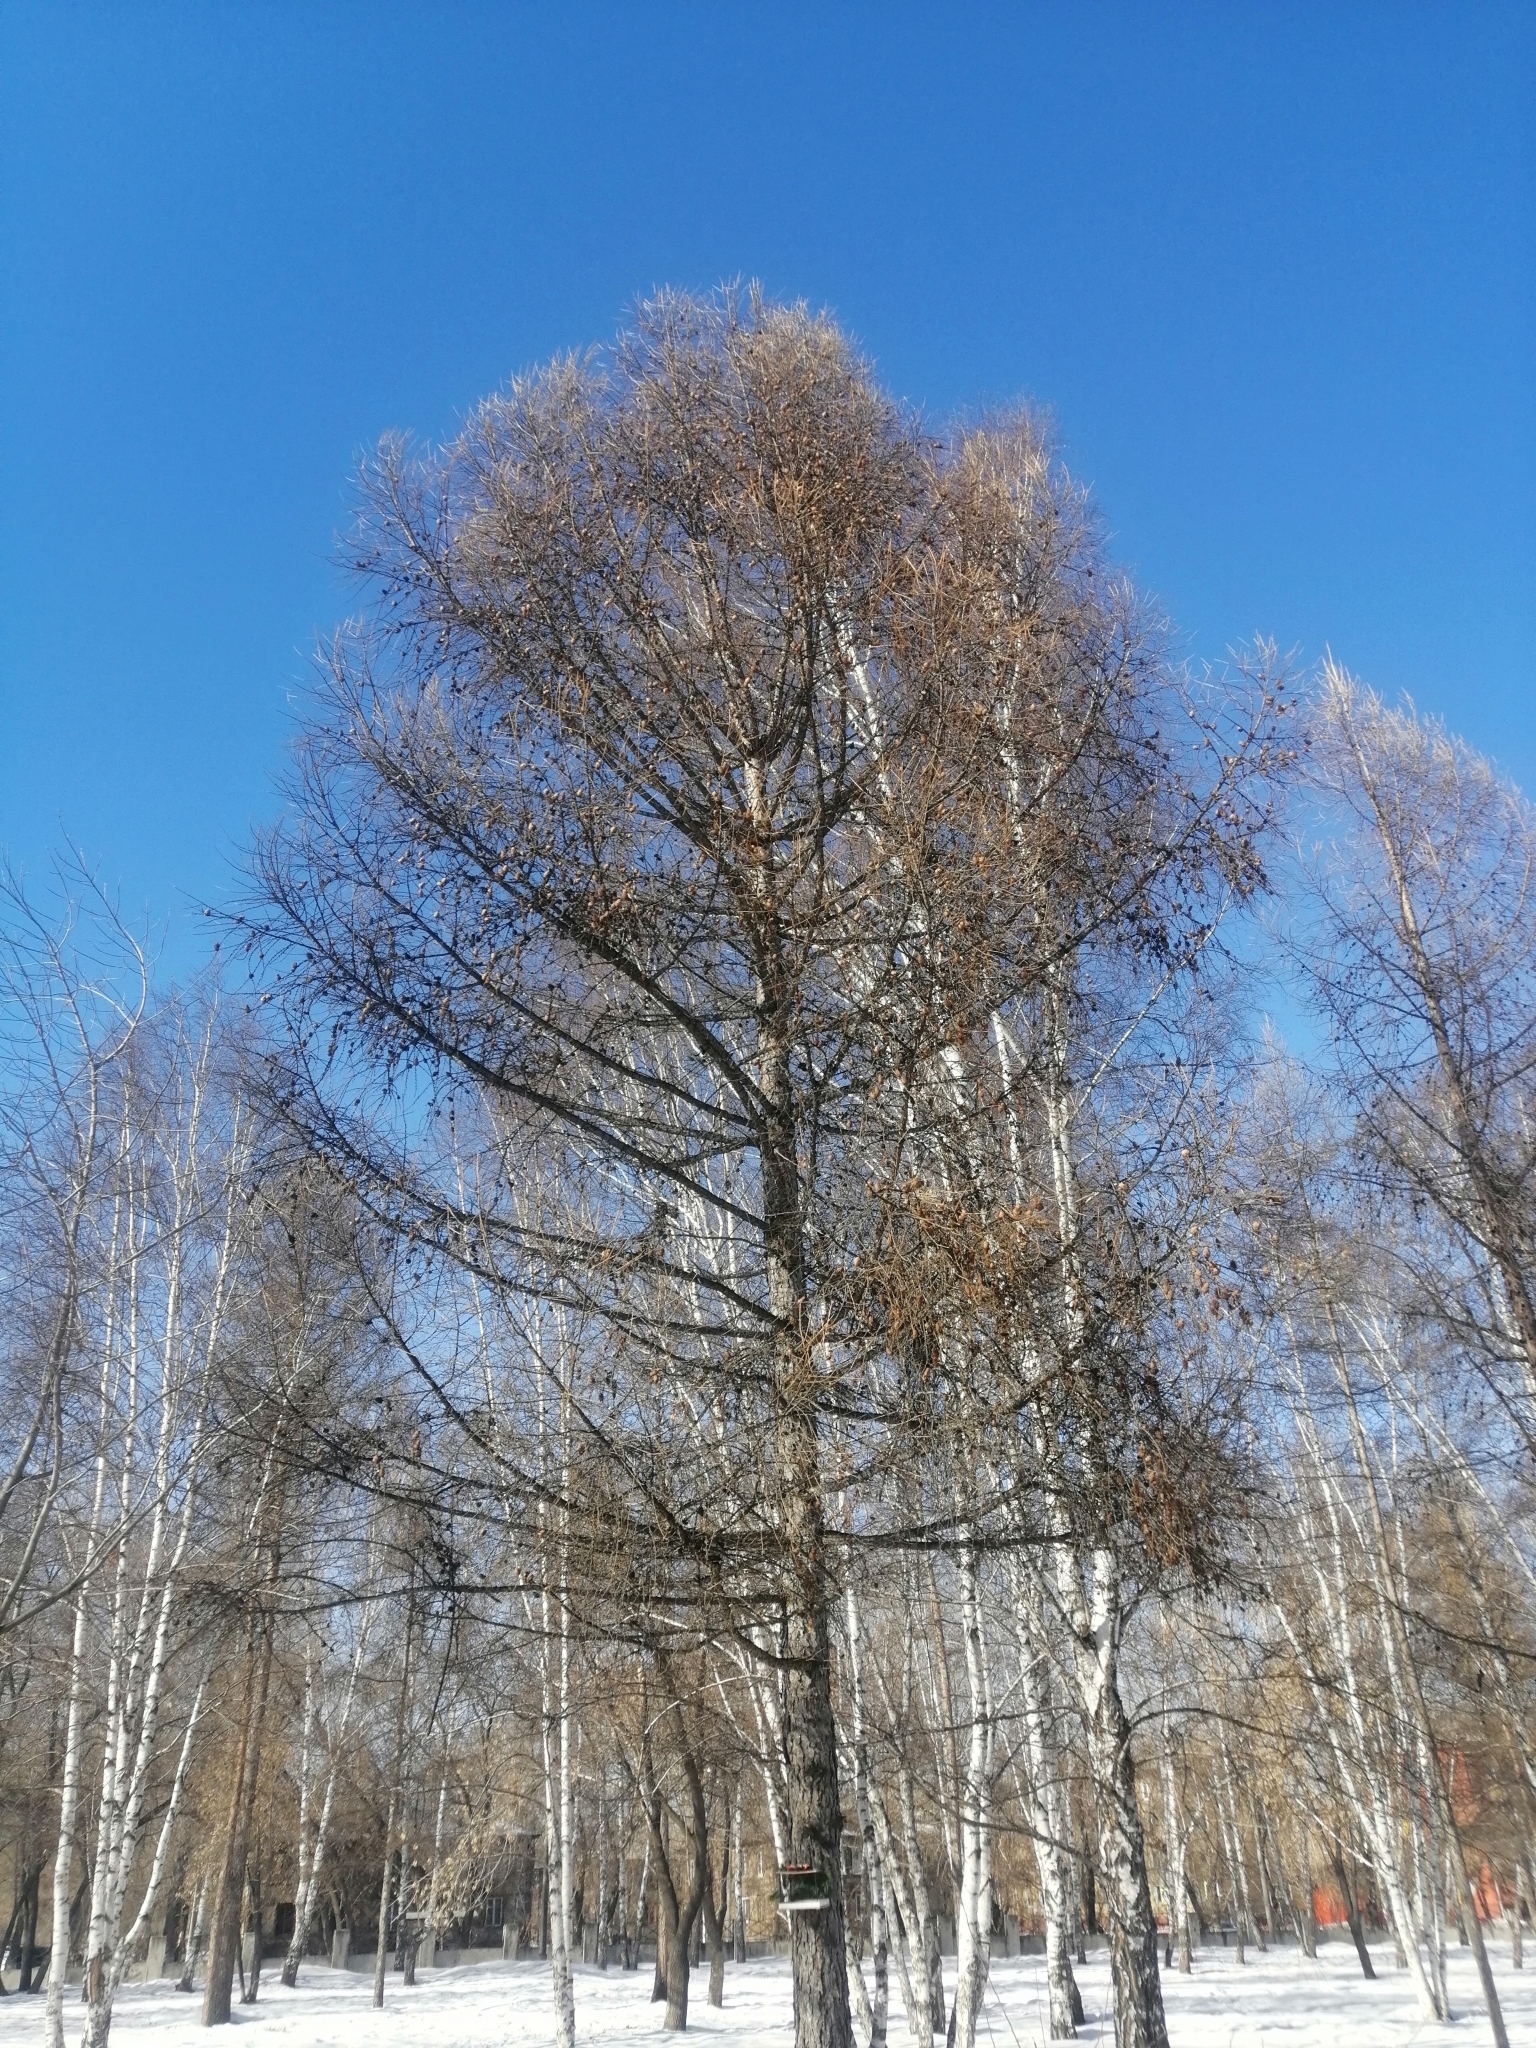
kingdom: Plantae
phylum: Tracheophyta
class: Pinopsida
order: Pinales
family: Pinaceae
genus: Larix
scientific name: Larix sibirica
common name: Siberian larch
